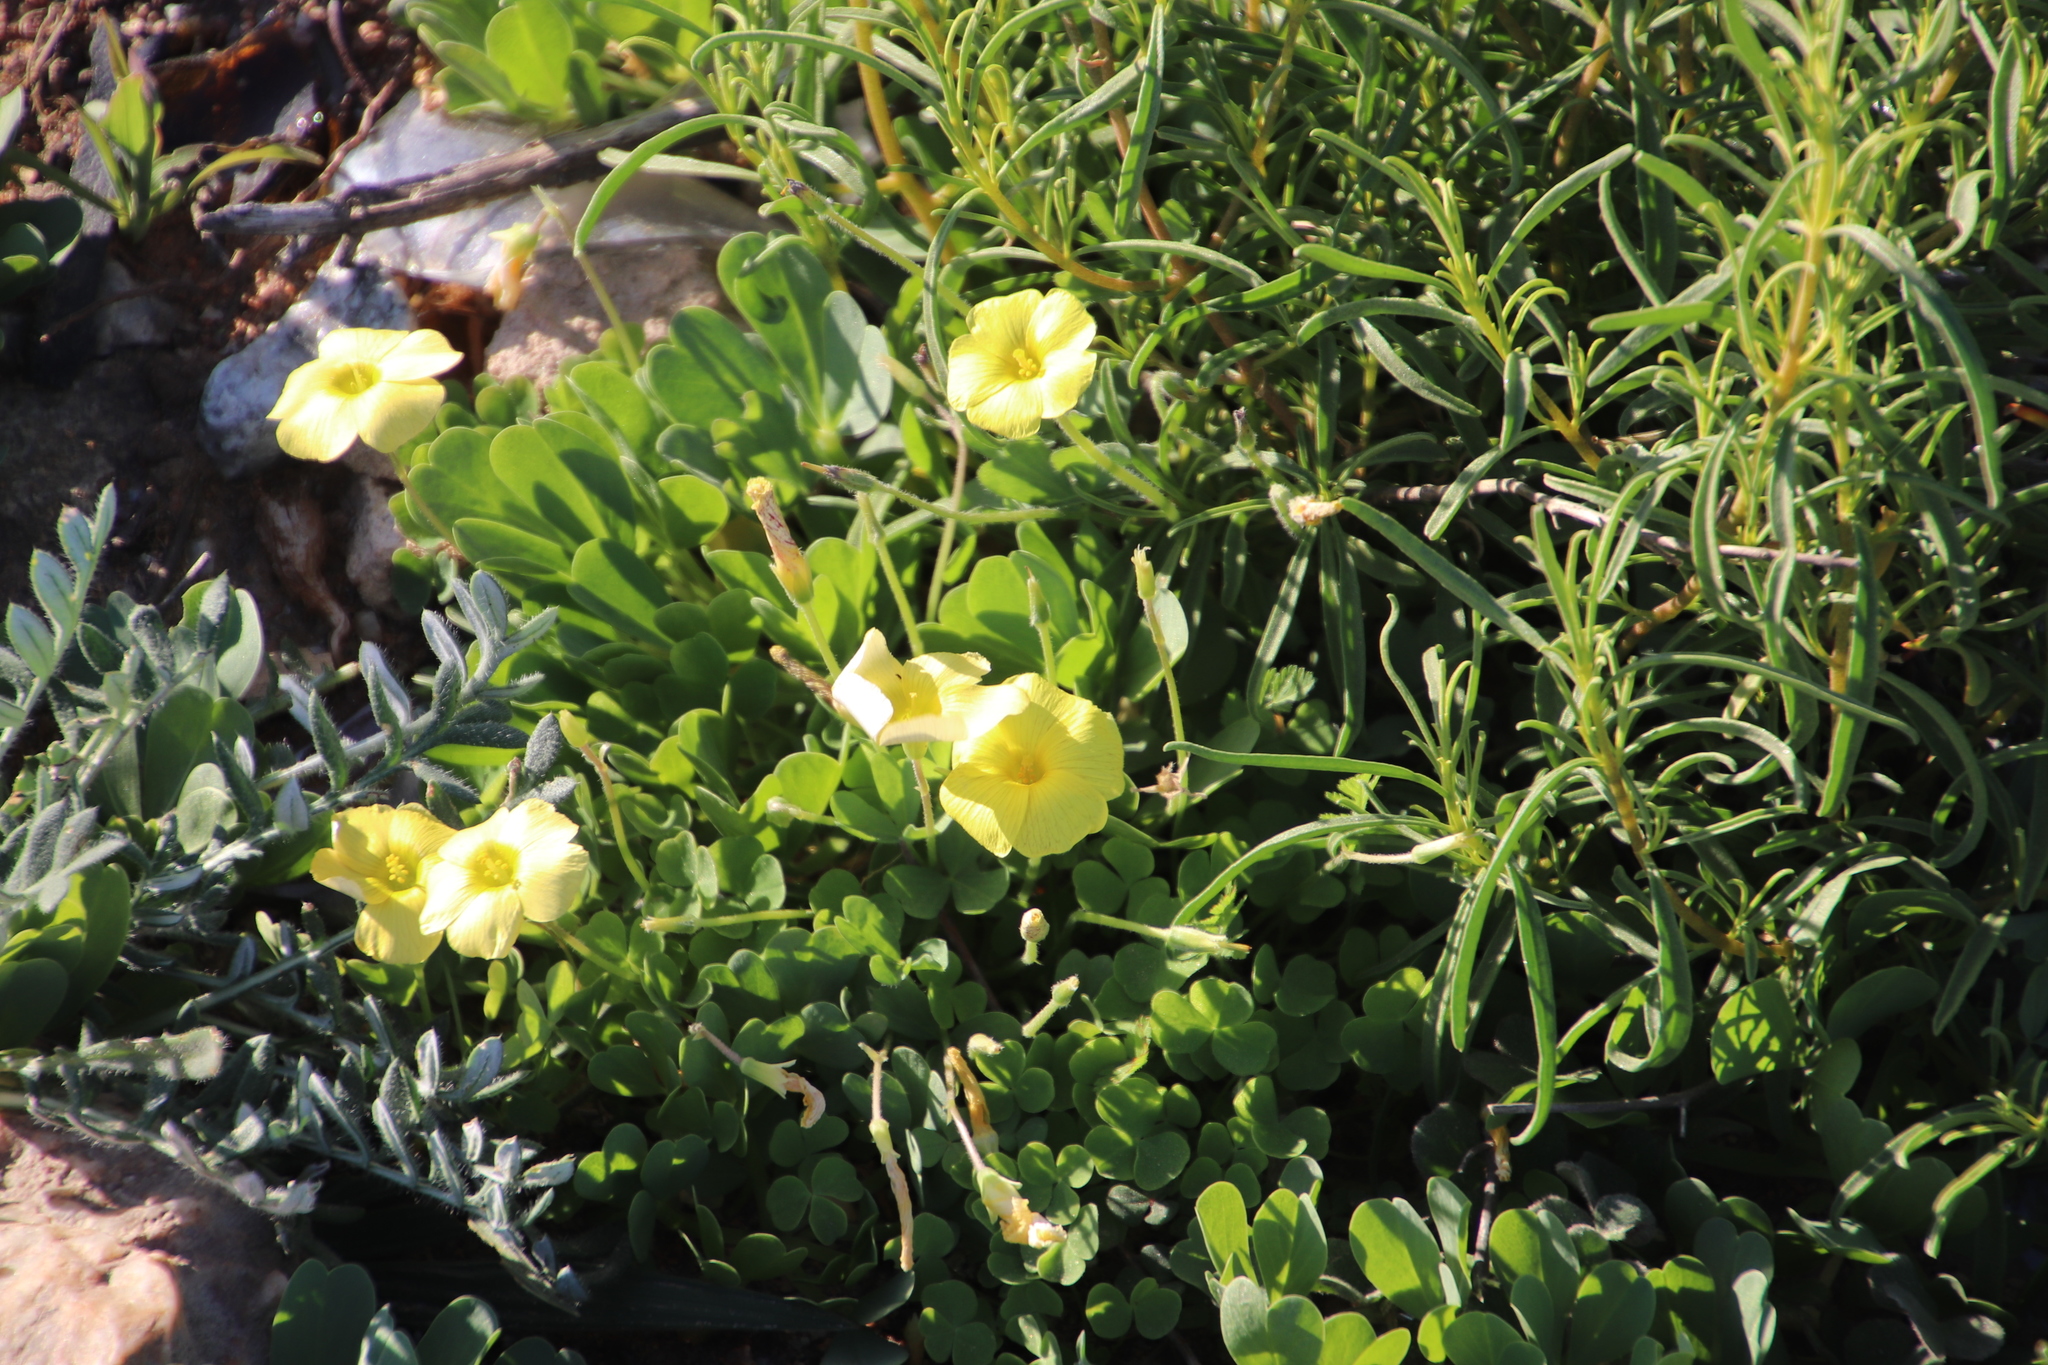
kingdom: Plantae
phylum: Tracheophyta
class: Magnoliopsida
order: Oxalidales
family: Oxalidaceae
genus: Oxalis
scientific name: Oxalis obtusa
